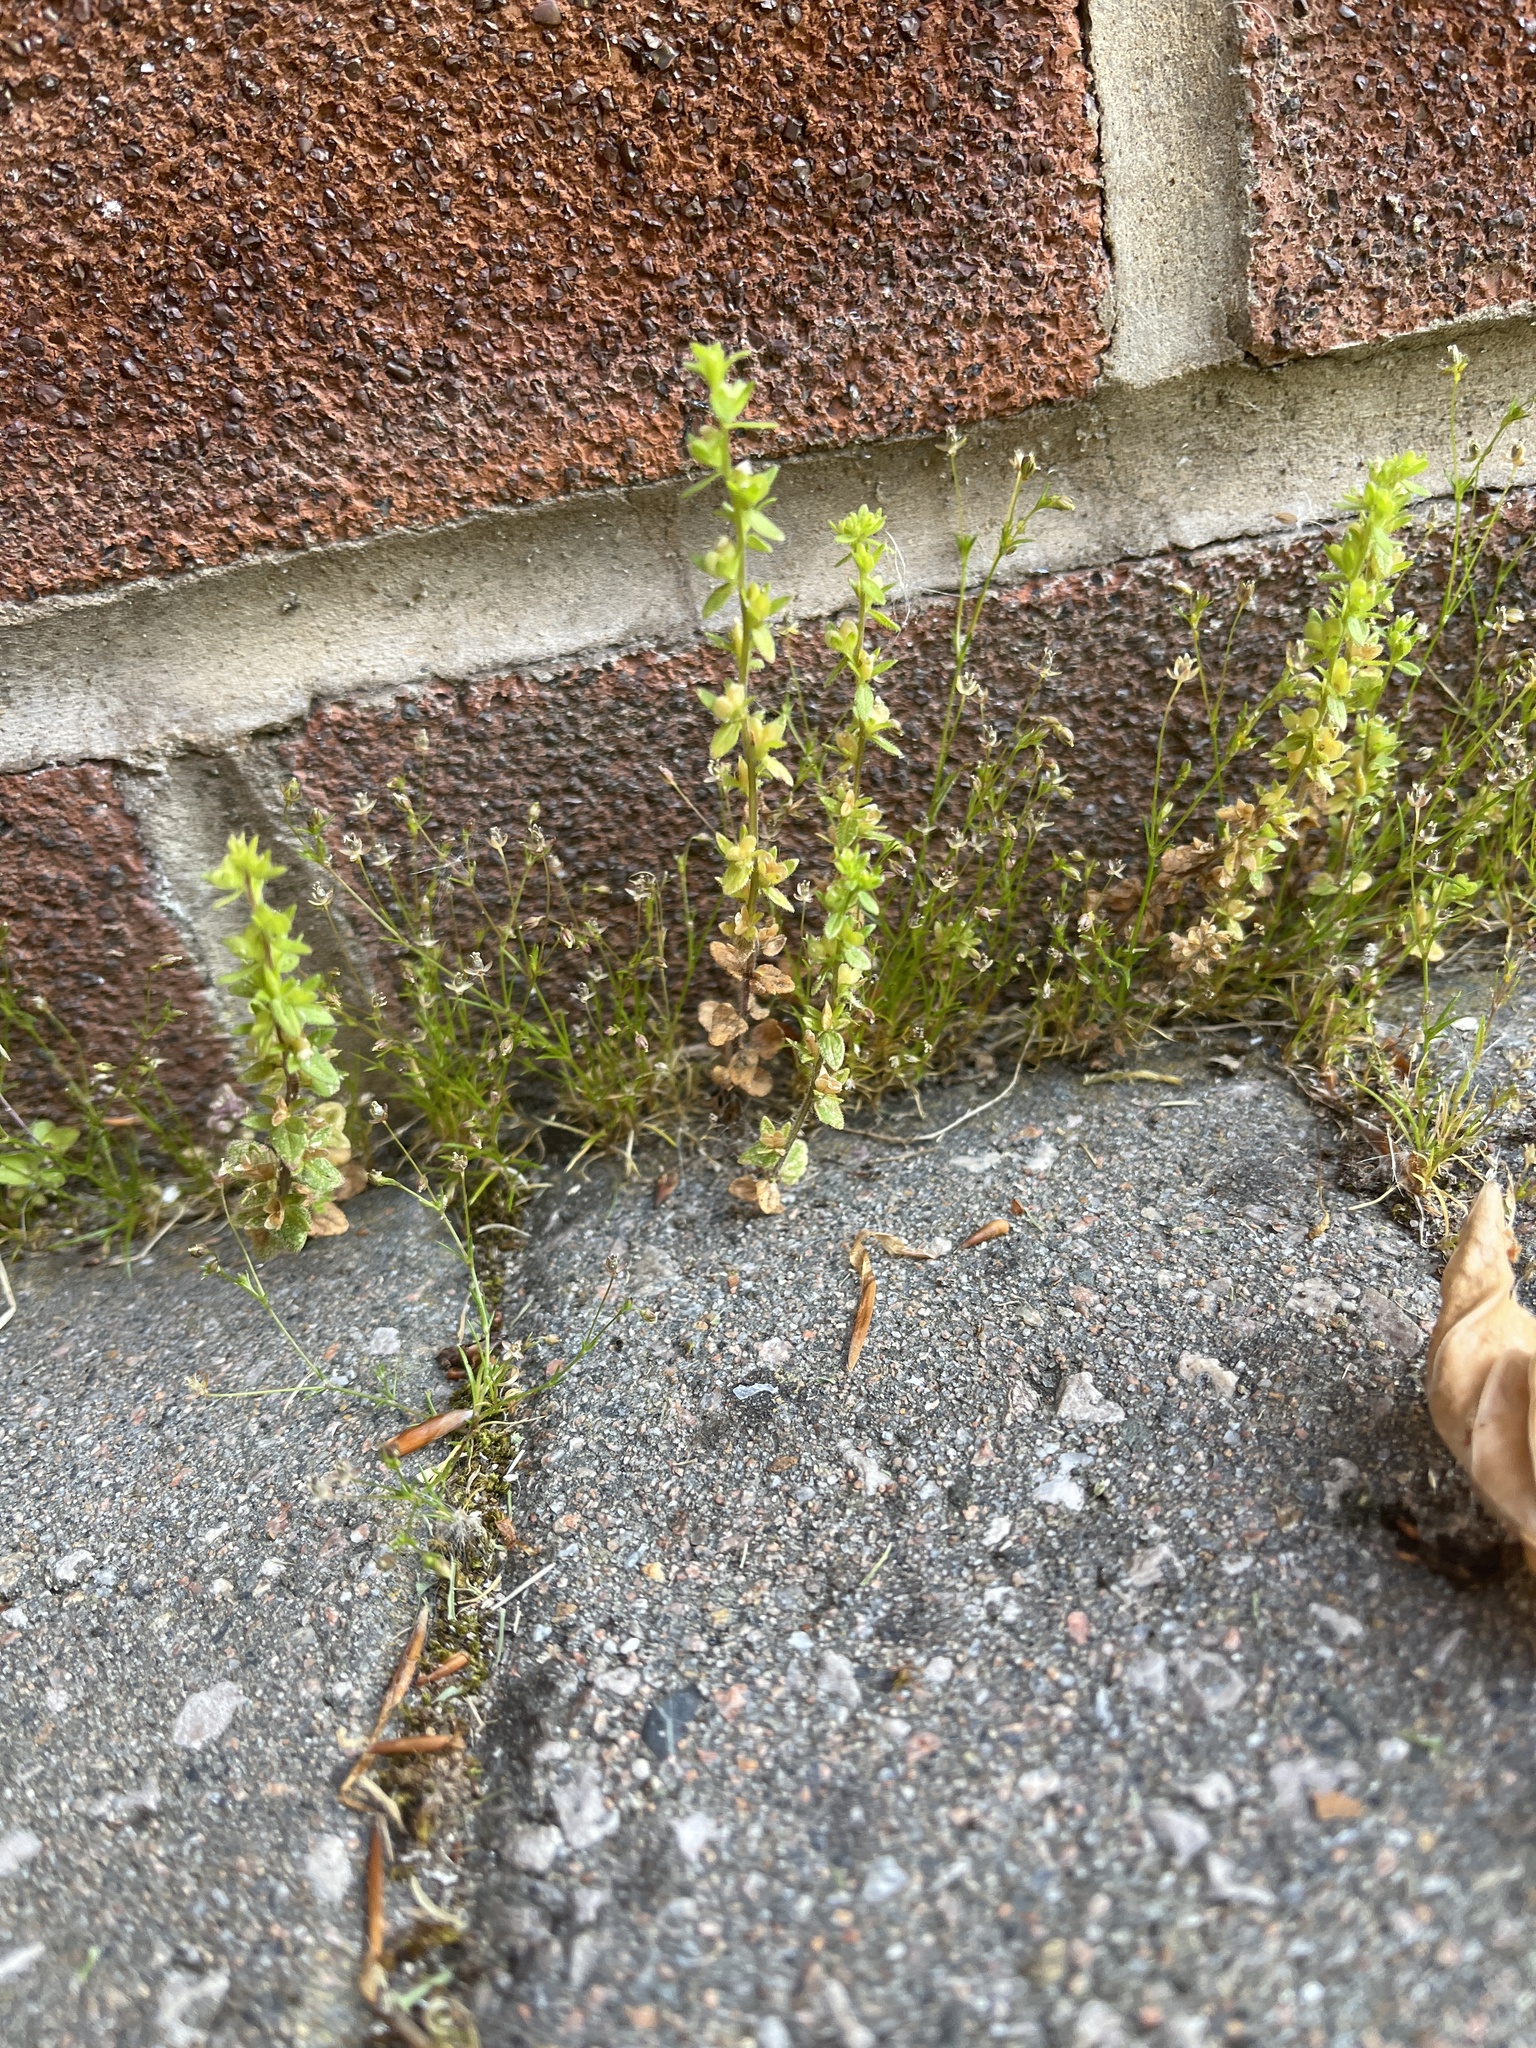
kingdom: Plantae
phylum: Tracheophyta
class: Magnoliopsida
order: Lamiales
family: Plantaginaceae
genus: Veronica
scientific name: Veronica arvensis
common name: Corn speedwell
